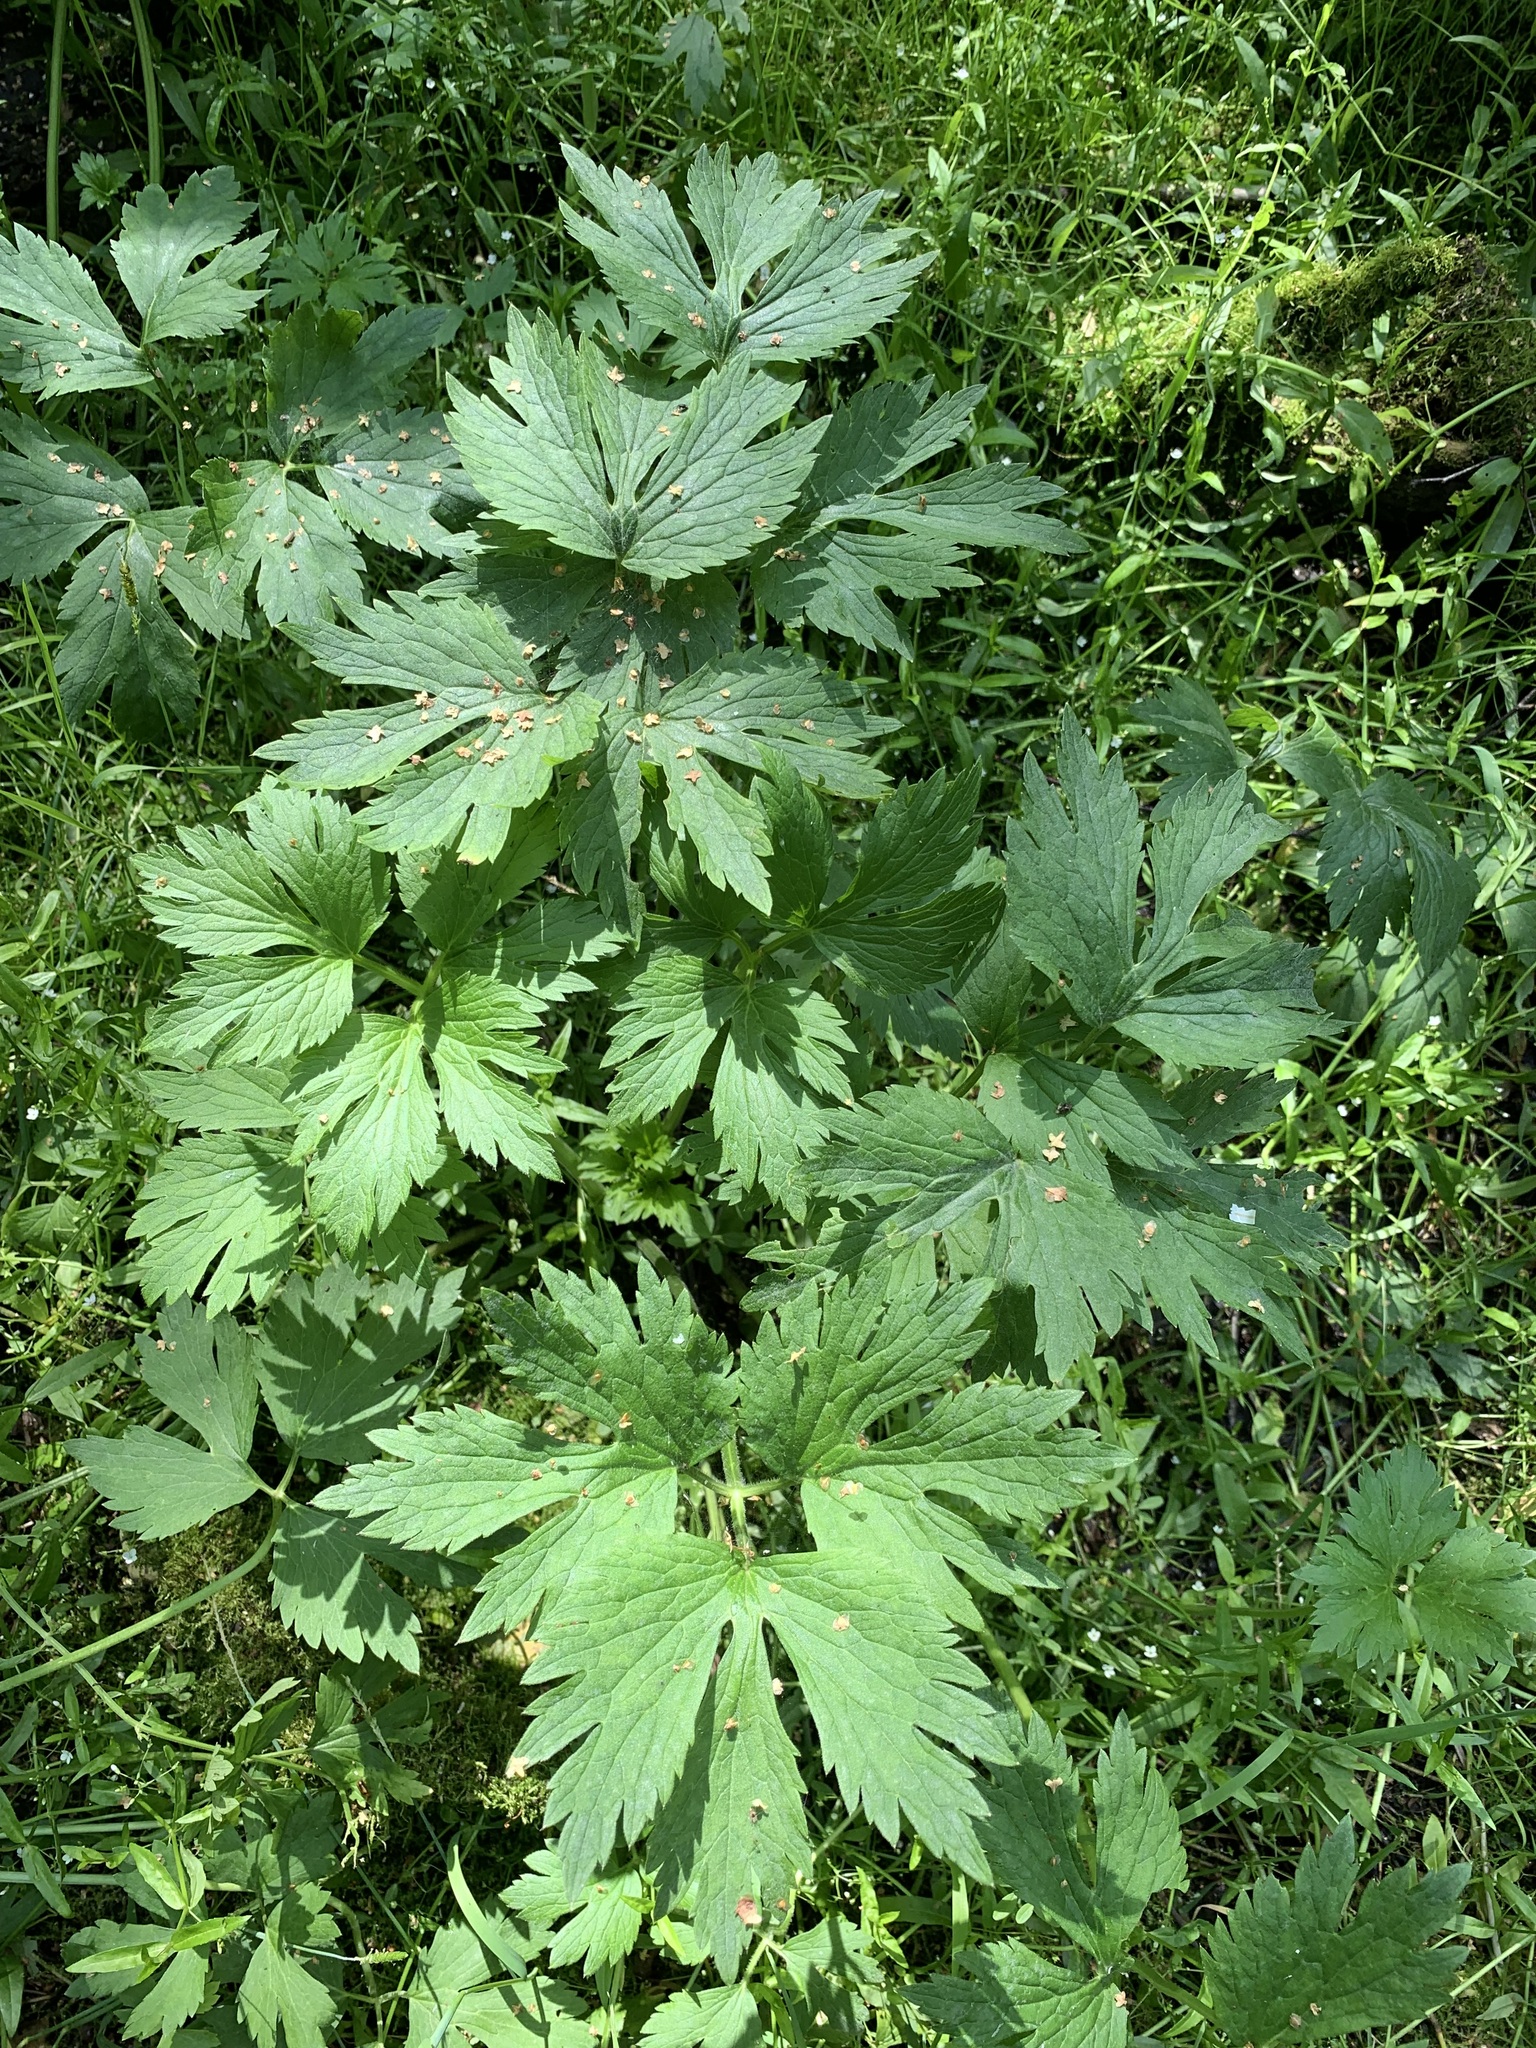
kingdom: Plantae
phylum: Tracheophyta
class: Magnoliopsida
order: Ranunculales
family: Ranunculaceae
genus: Ranunculus
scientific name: Ranunculus repens
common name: Creeping buttercup
